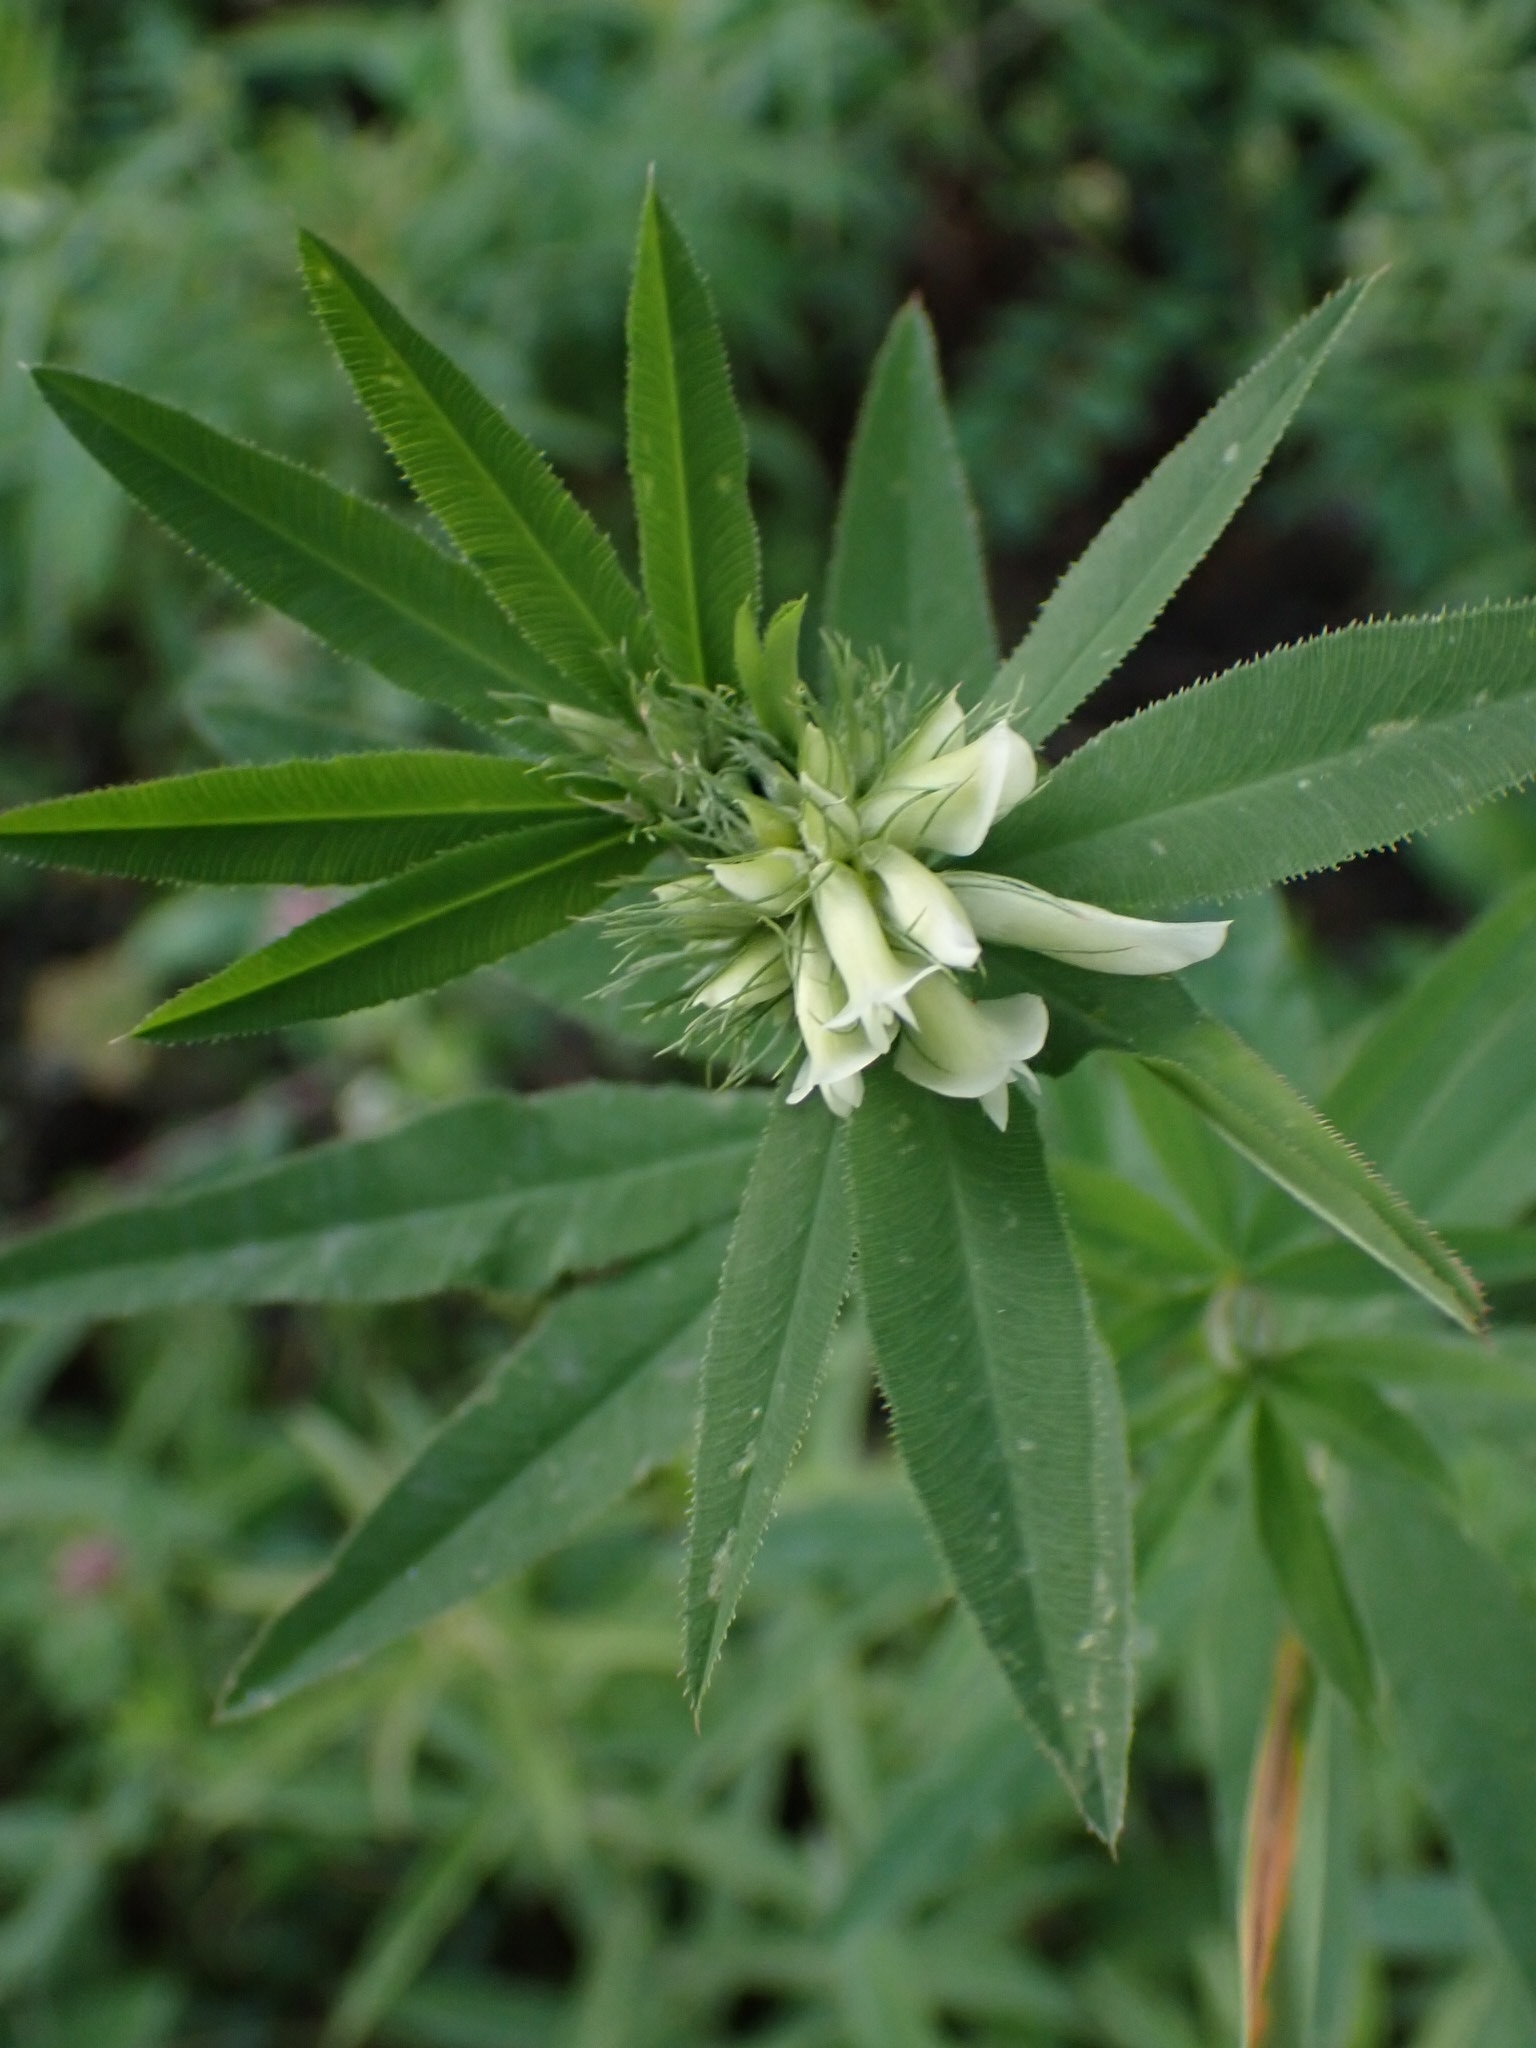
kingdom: Plantae
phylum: Tracheophyta
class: Magnoliopsida
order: Fabales
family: Fabaceae
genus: Trifolium
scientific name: Trifolium lupinaster
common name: Lupine clover
